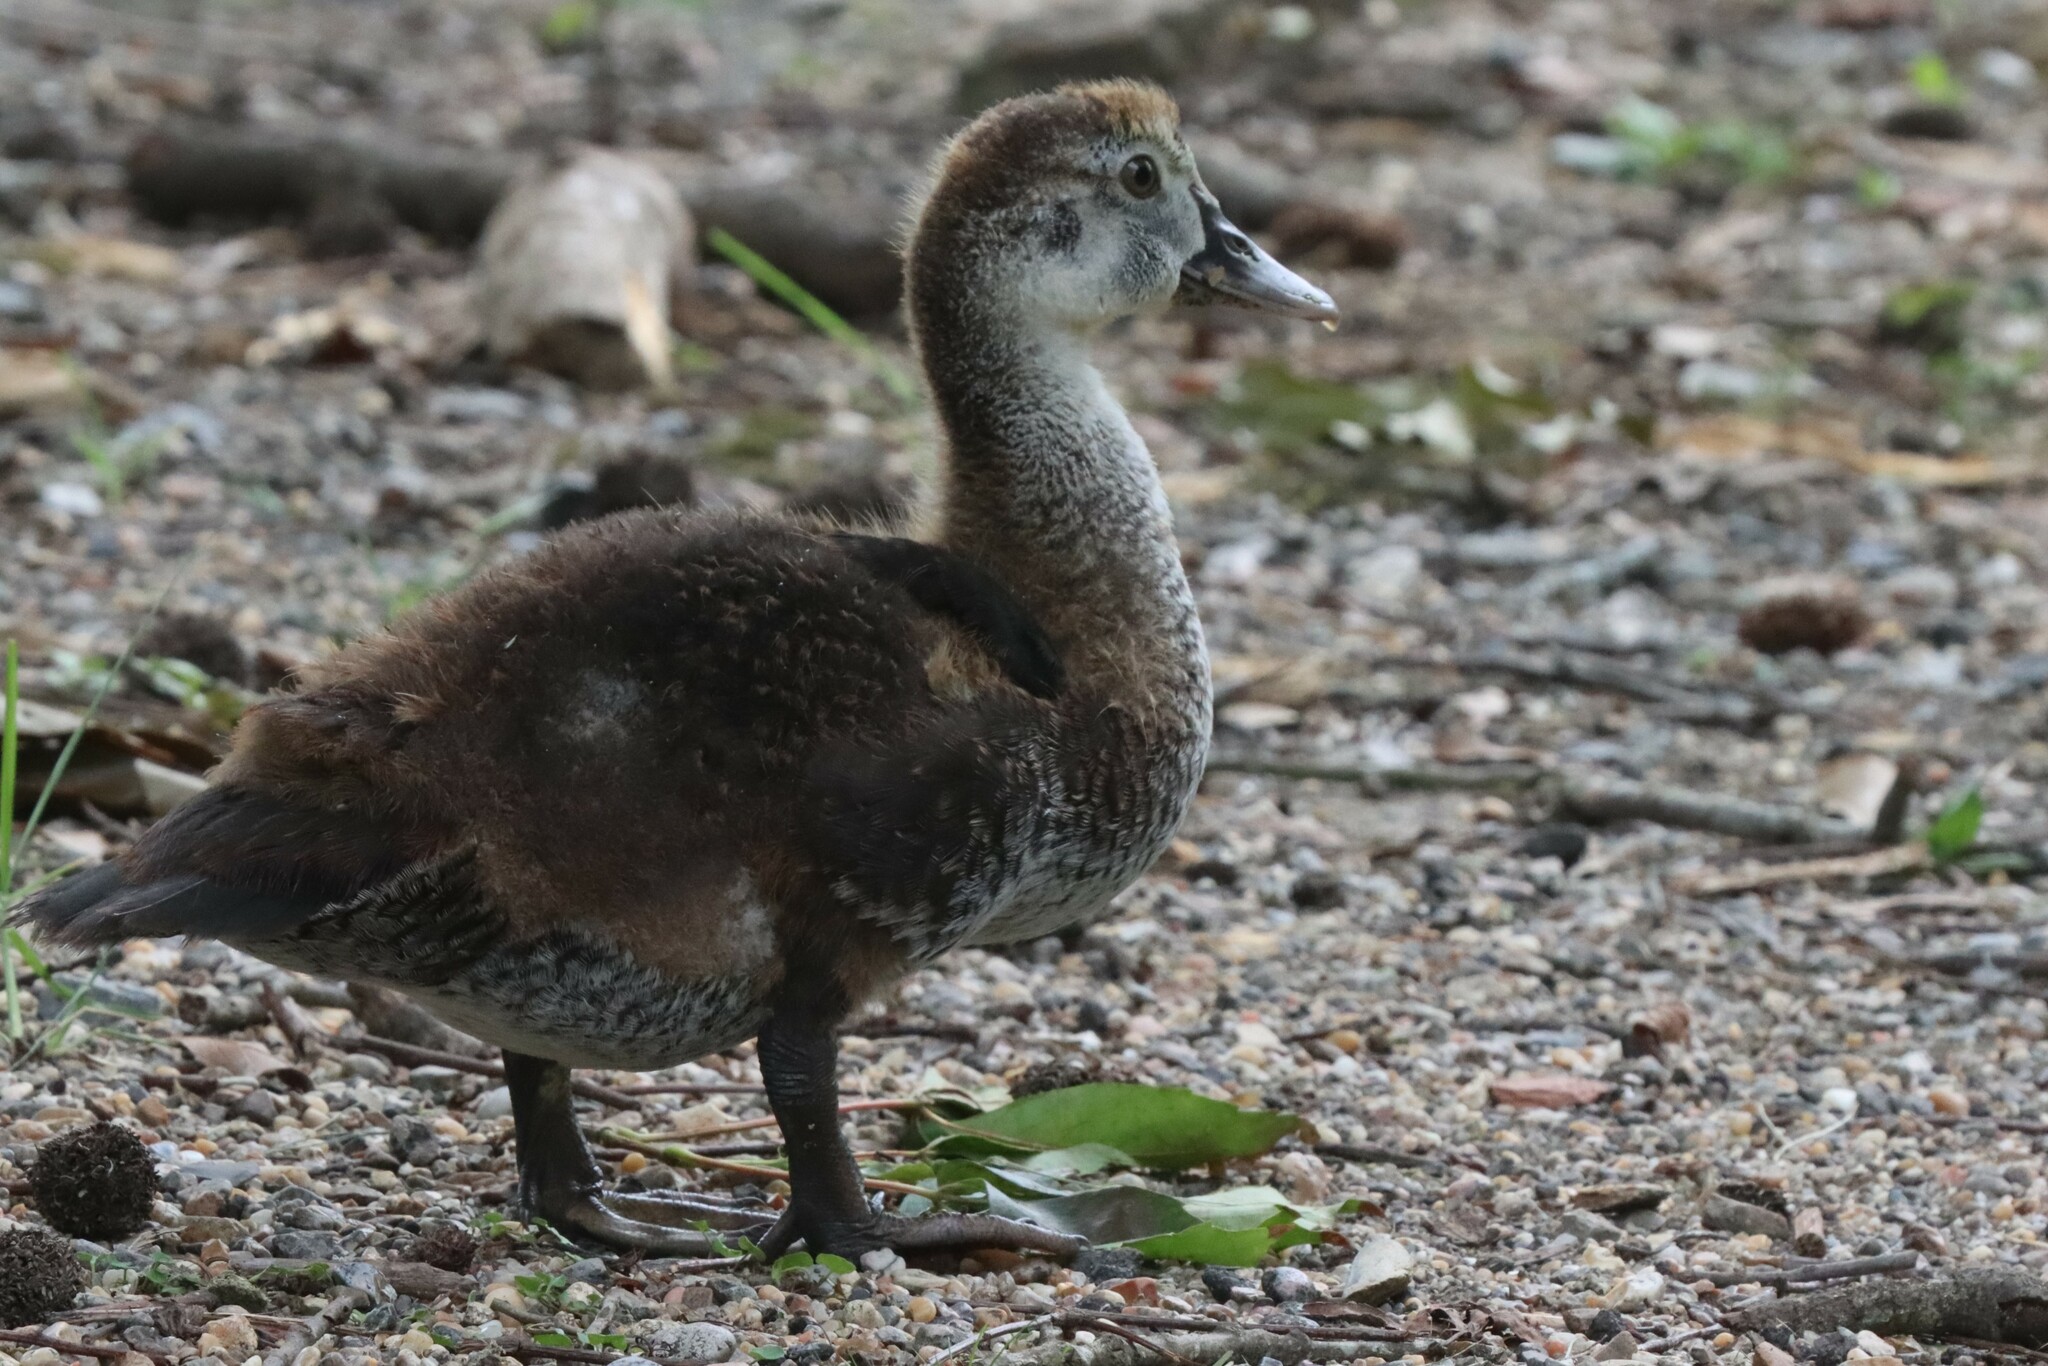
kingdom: Animalia
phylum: Chordata
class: Aves
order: Anseriformes
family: Anatidae
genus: Cairina
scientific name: Cairina moschata
